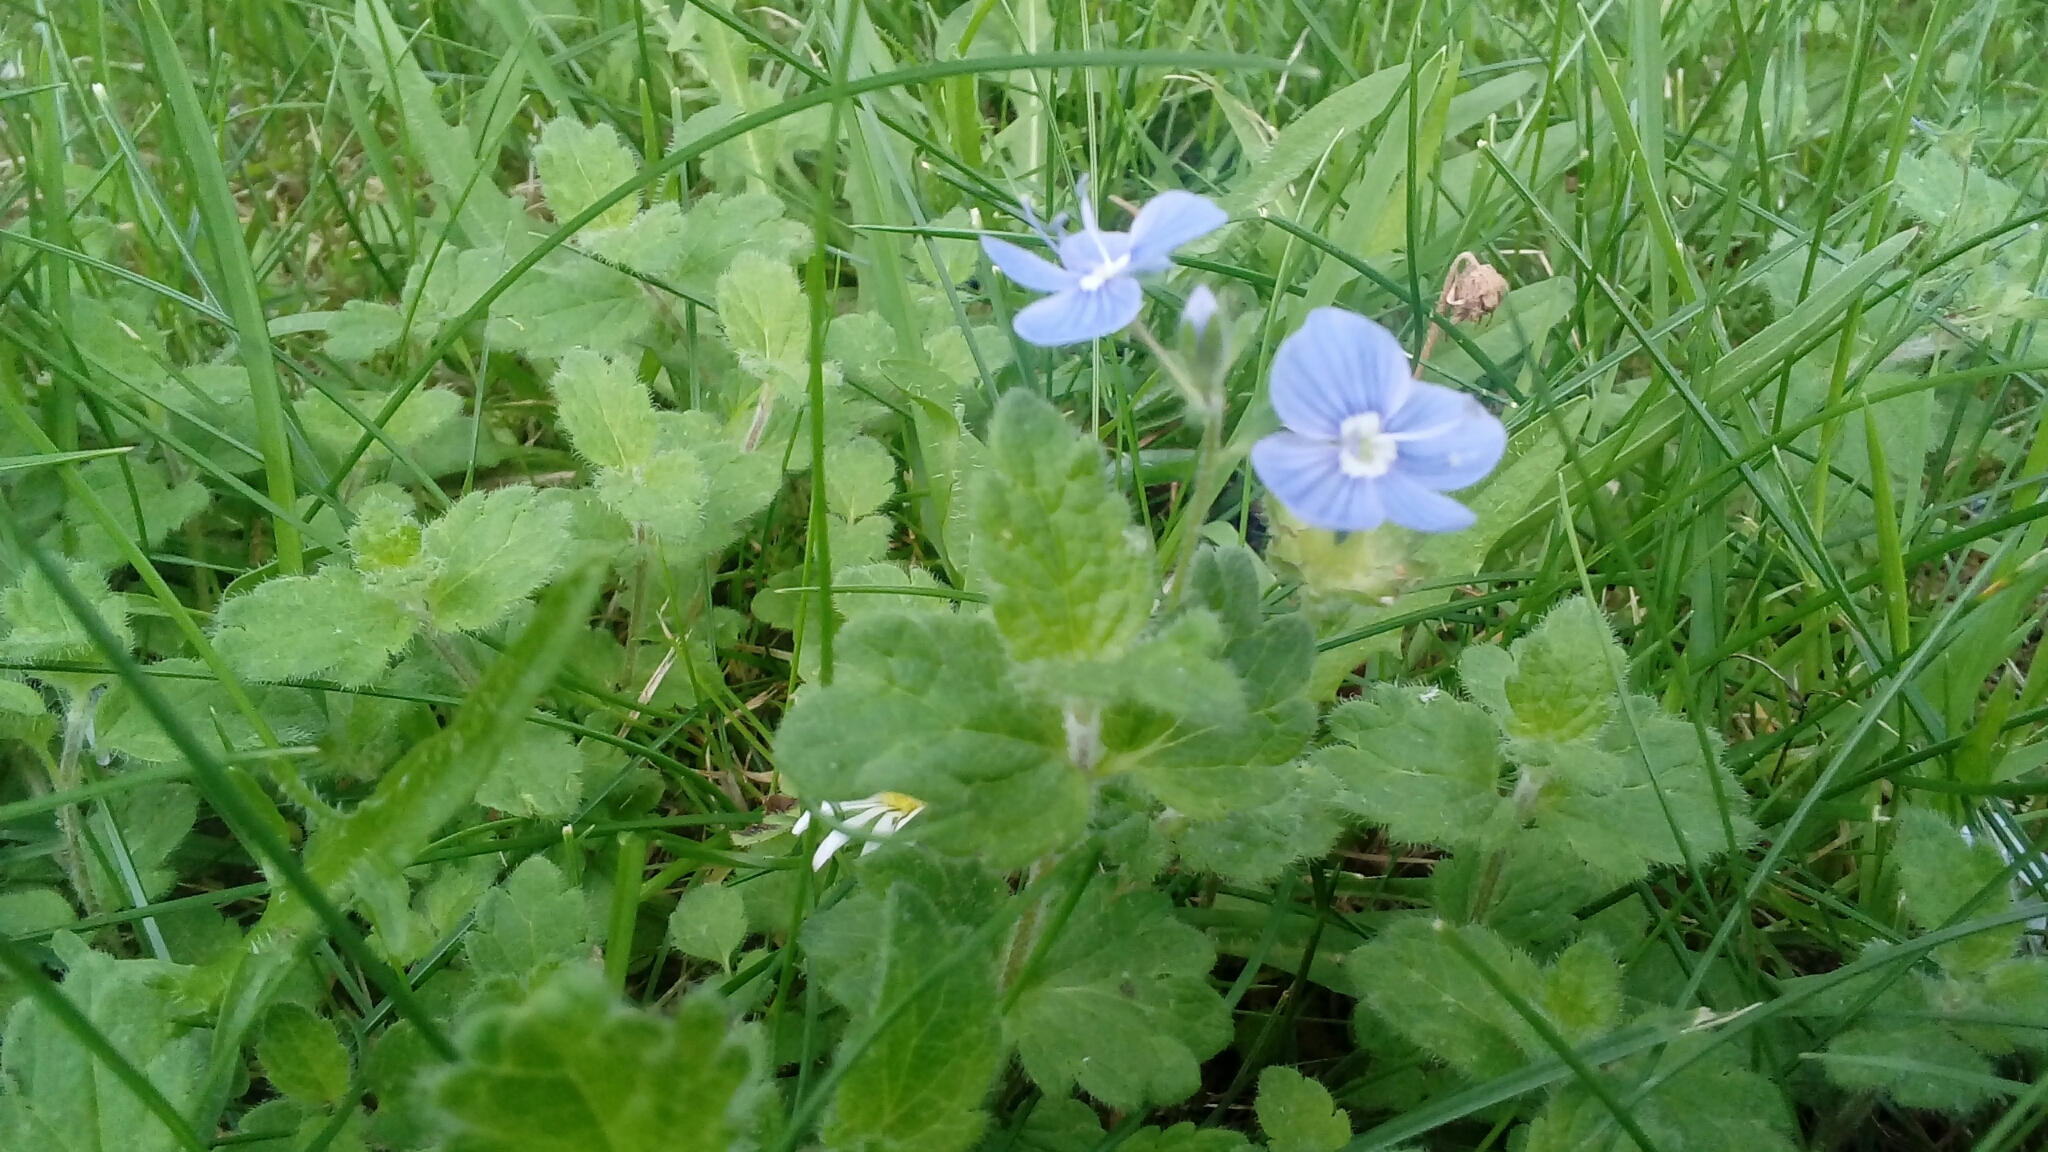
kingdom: Plantae
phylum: Tracheophyta
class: Magnoliopsida
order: Lamiales
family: Plantaginaceae
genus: Veronica
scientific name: Veronica chamaedrys
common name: Germander speedwell
